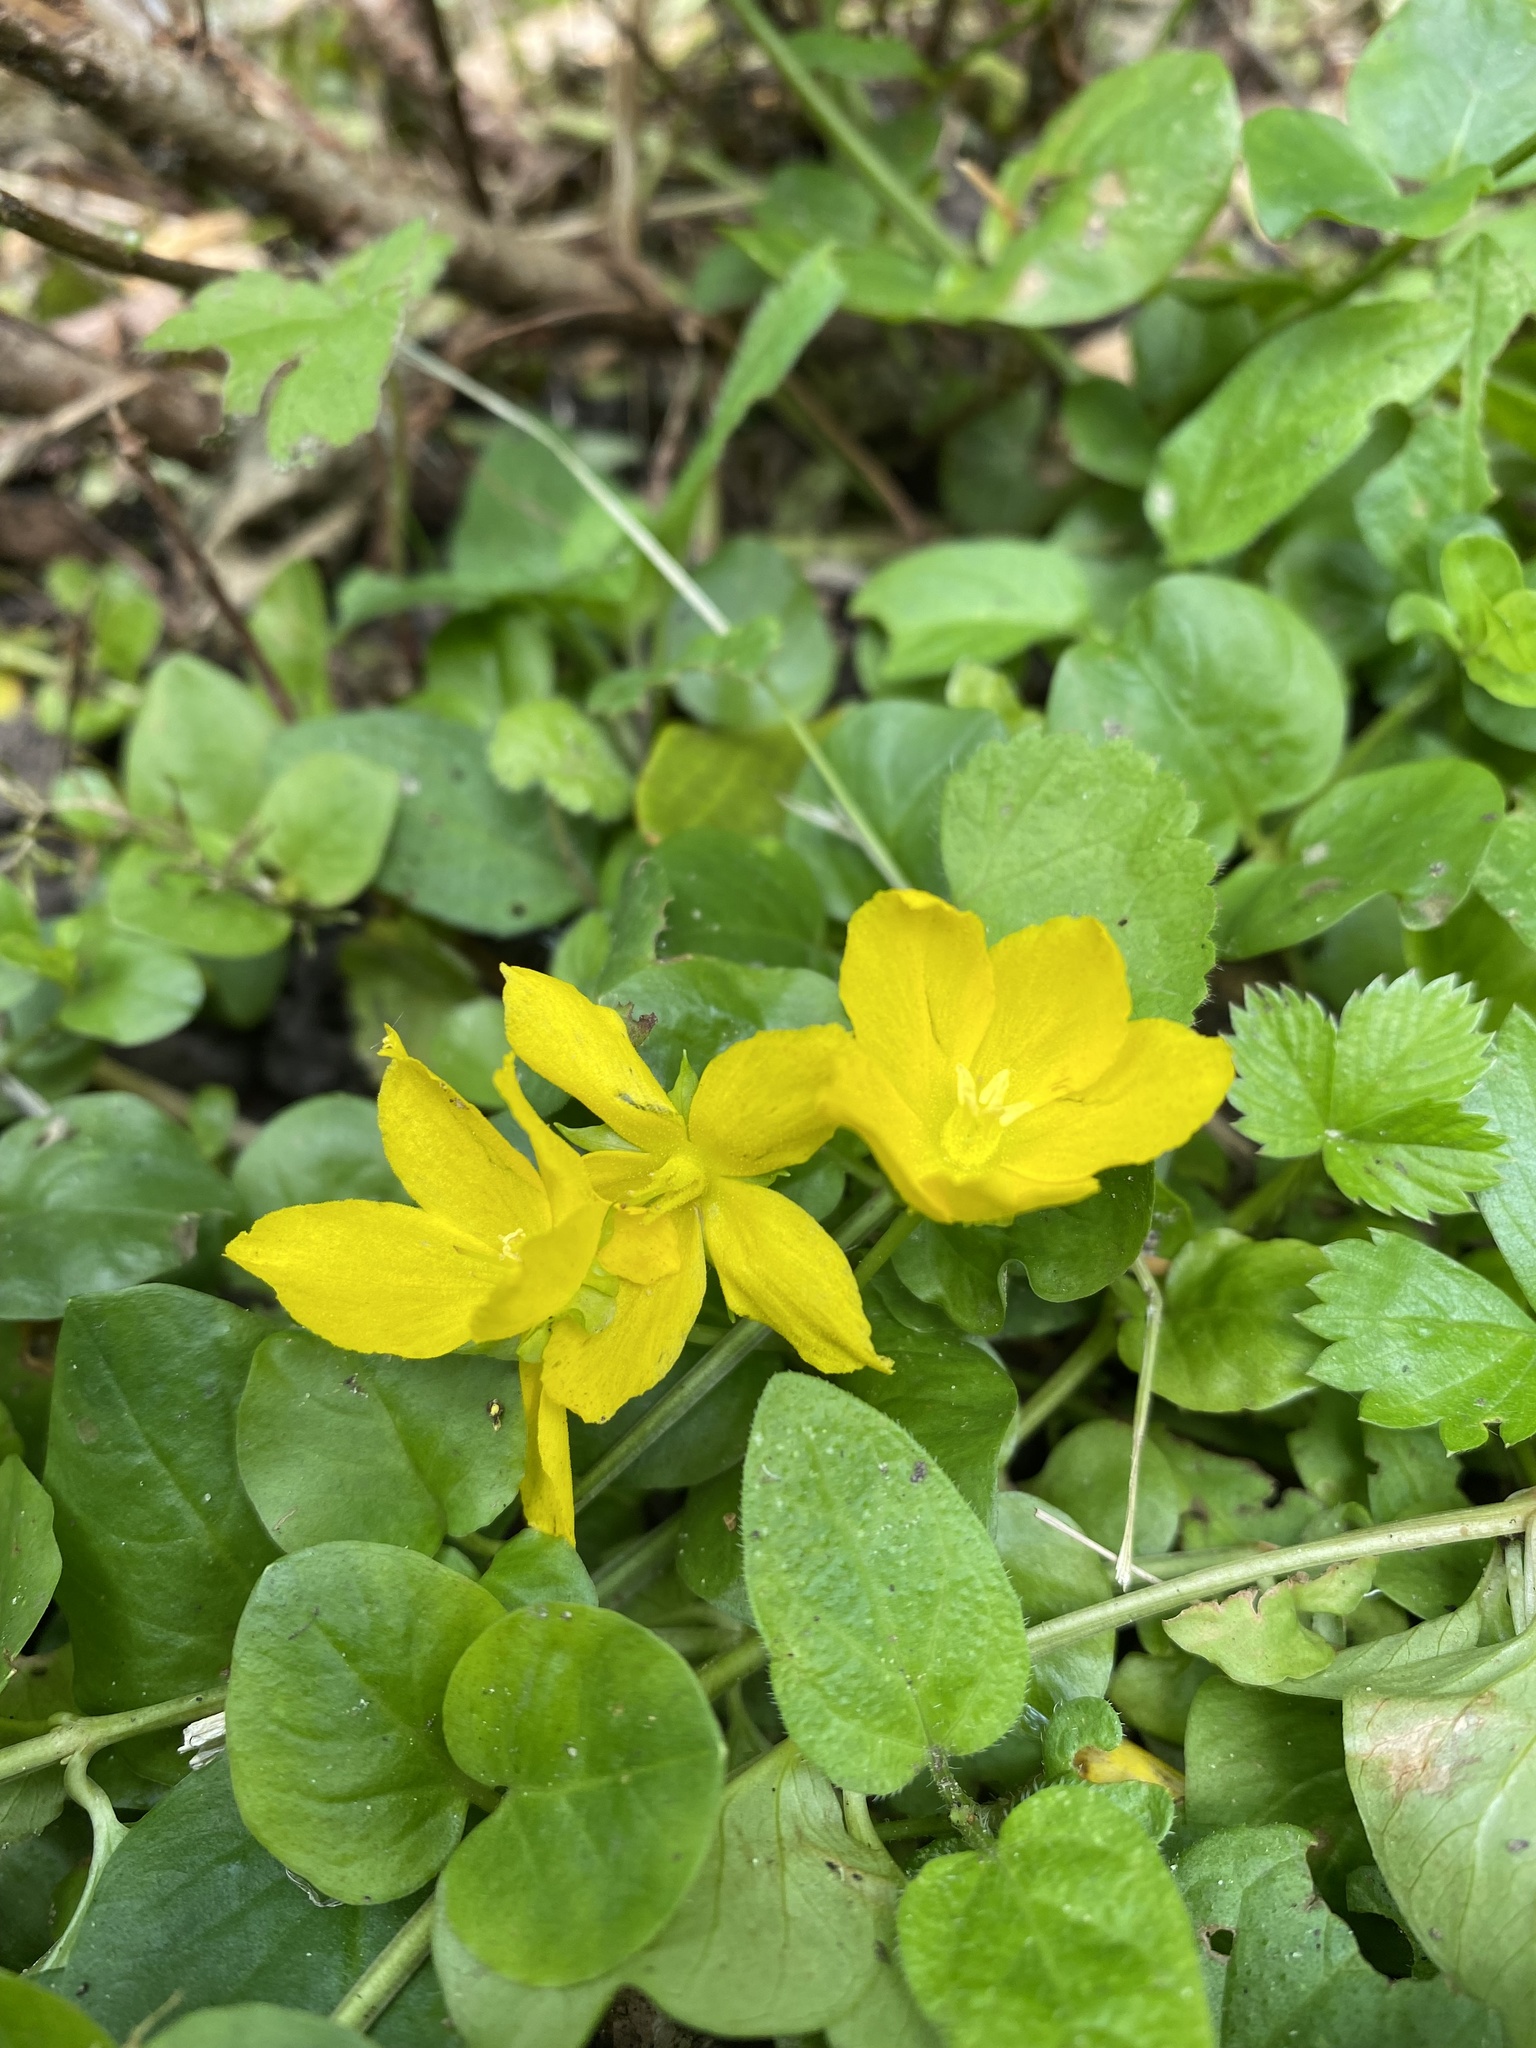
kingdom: Plantae
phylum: Tracheophyta
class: Magnoliopsida
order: Ericales
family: Primulaceae
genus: Lysimachia
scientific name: Lysimachia nummularia
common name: Moneywort
